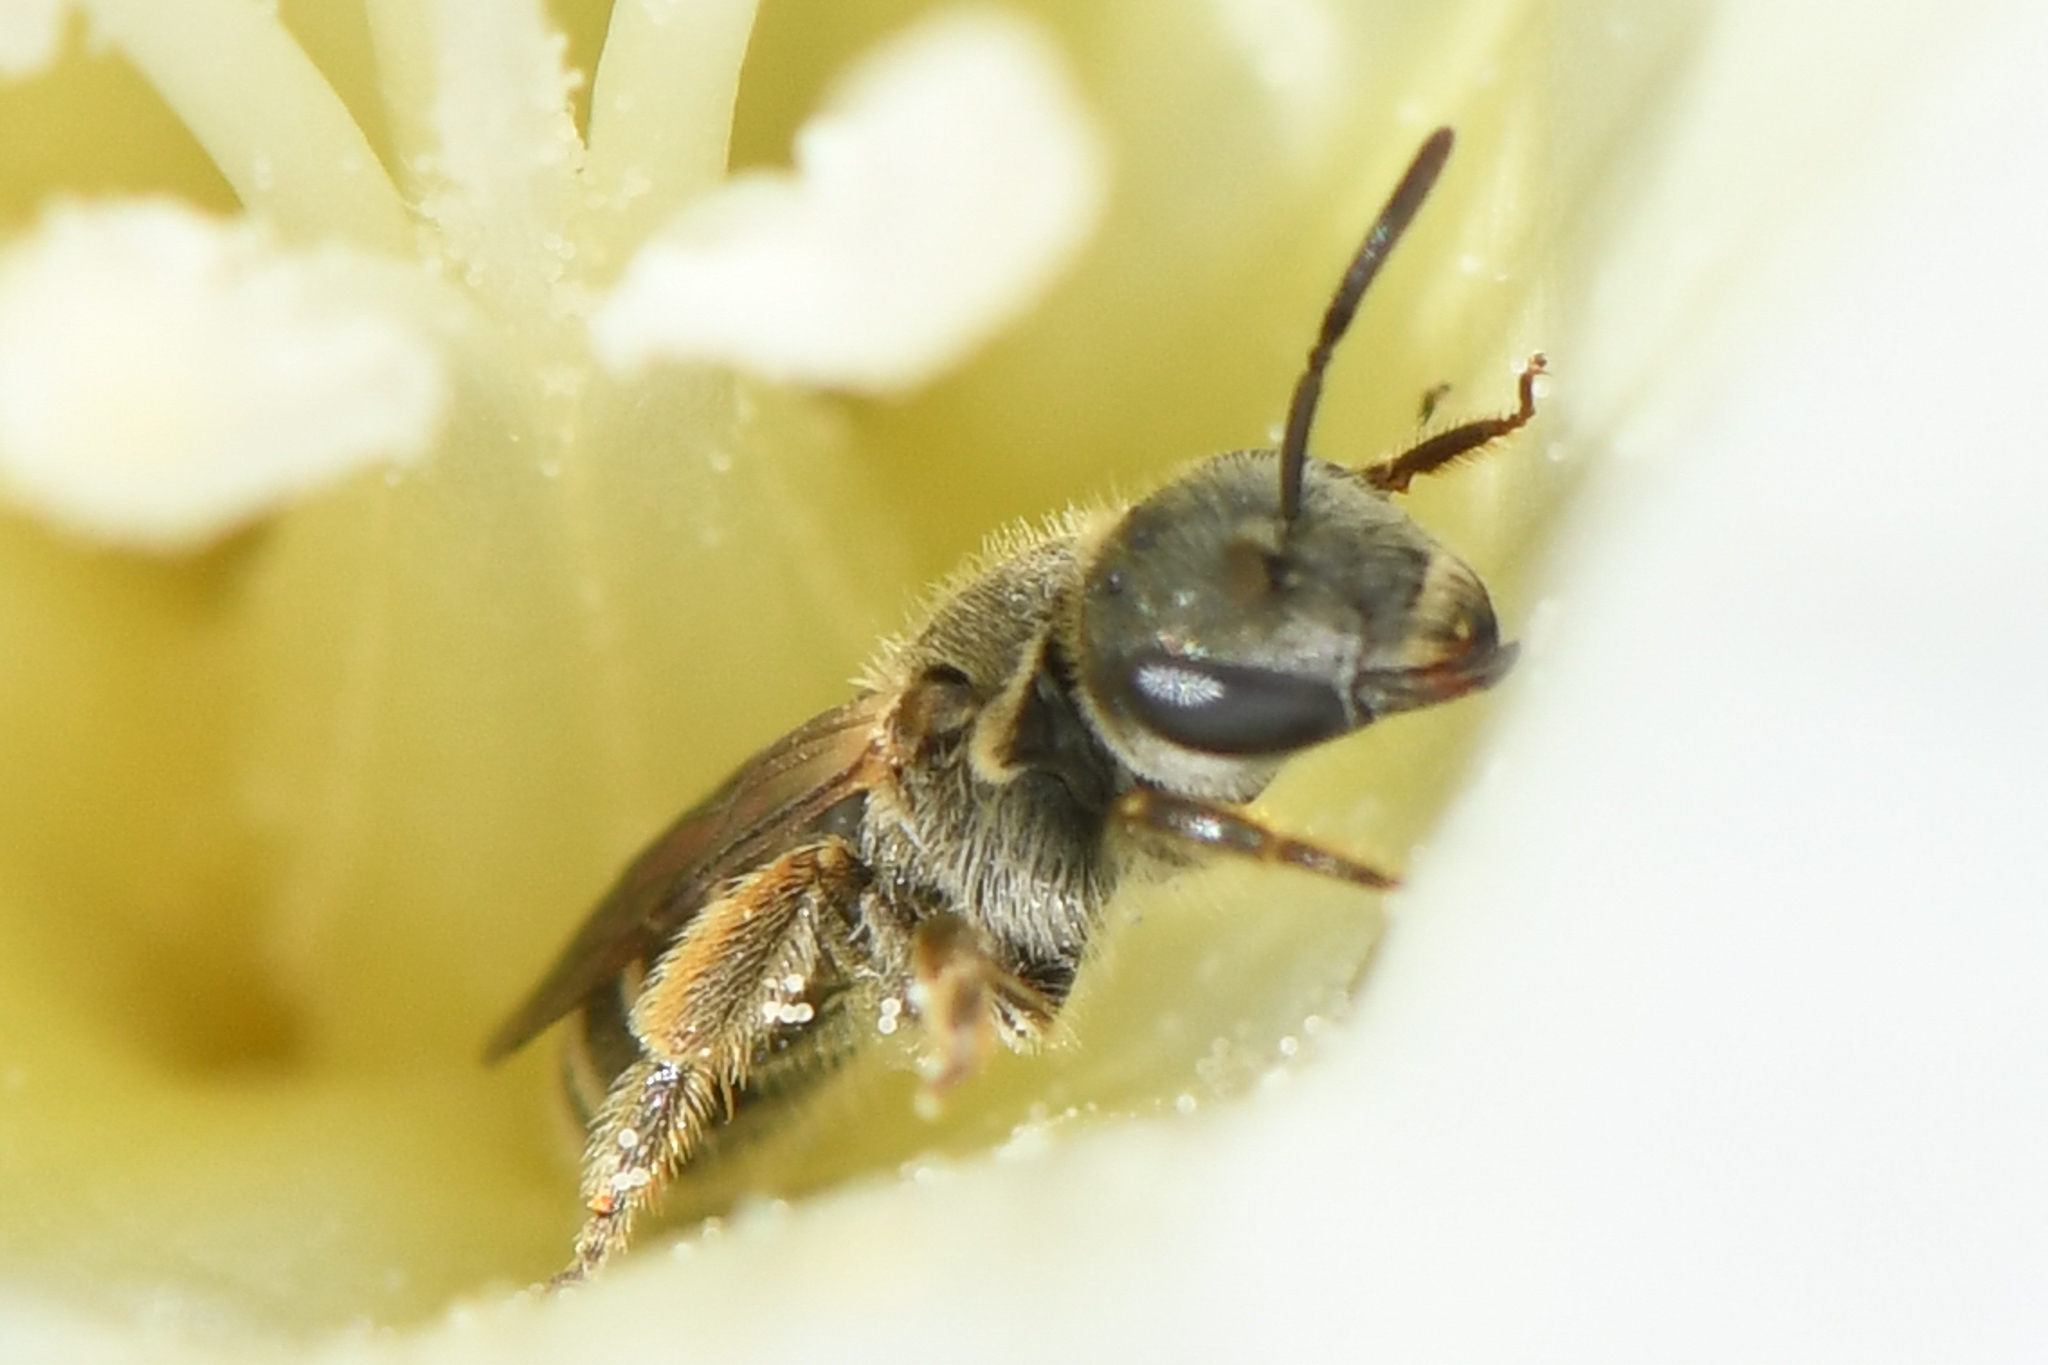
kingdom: Animalia
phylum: Arthropoda
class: Insecta
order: Hymenoptera
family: Halictidae
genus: Halictus
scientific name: Halictus tripartitus
